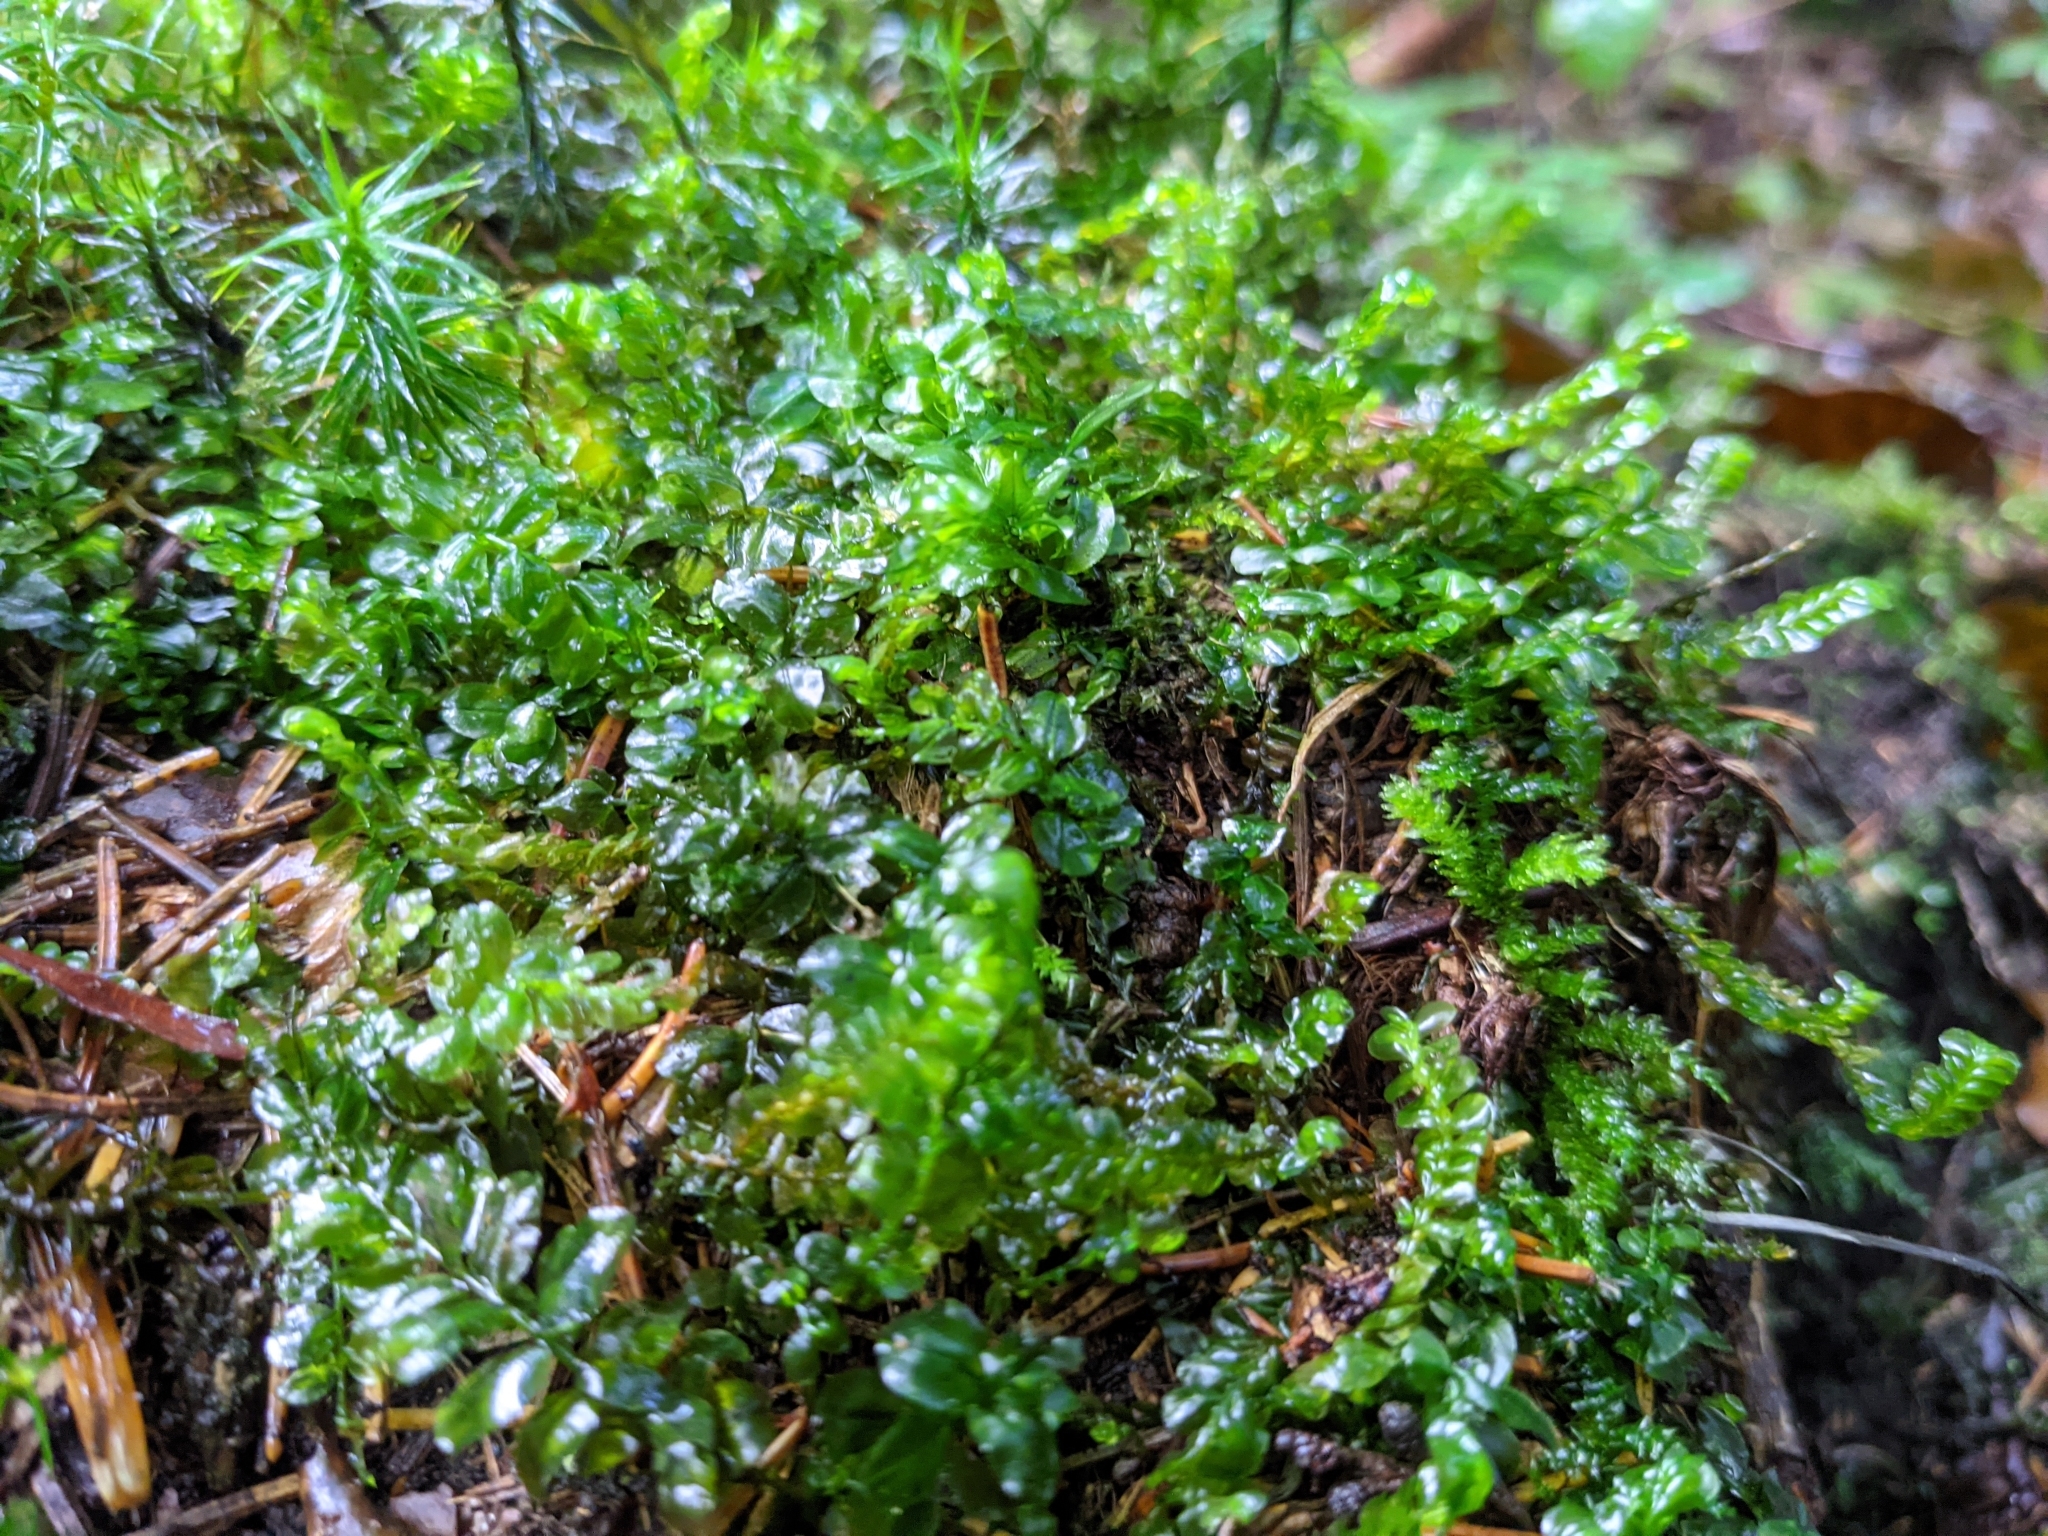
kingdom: Plantae
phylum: Bryophyta
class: Bryopsida
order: Bryales
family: Mniaceae
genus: Plagiomnium
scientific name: Plagiomnium affine
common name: Many-fruited thyme-moss
